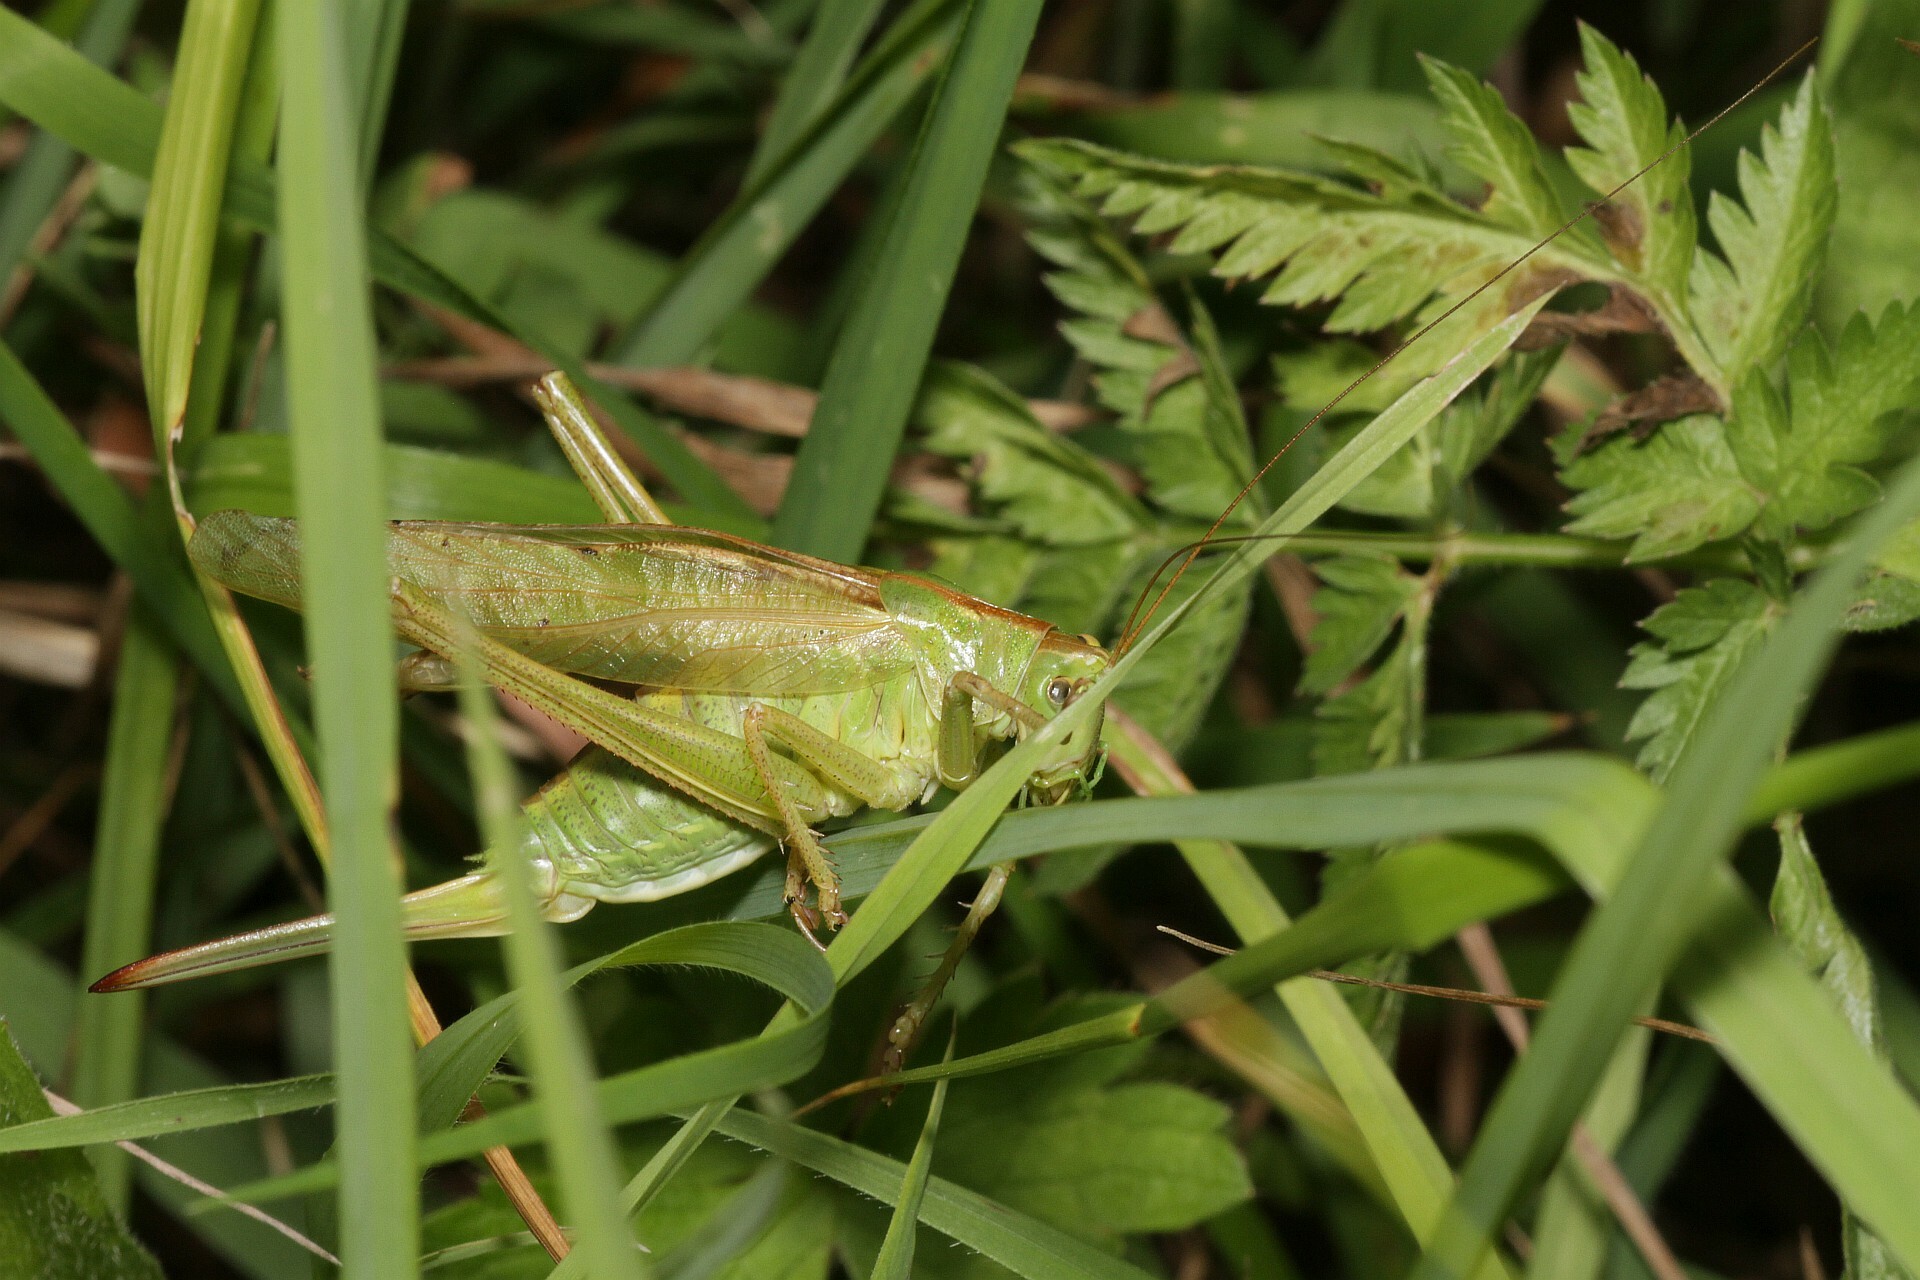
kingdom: Animalia
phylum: Arthropoda
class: Insecta
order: Orthoptera
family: Tettigoniidae
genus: Tettigonia
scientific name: Tettigonia viridissima
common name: Great green bush-cricket
